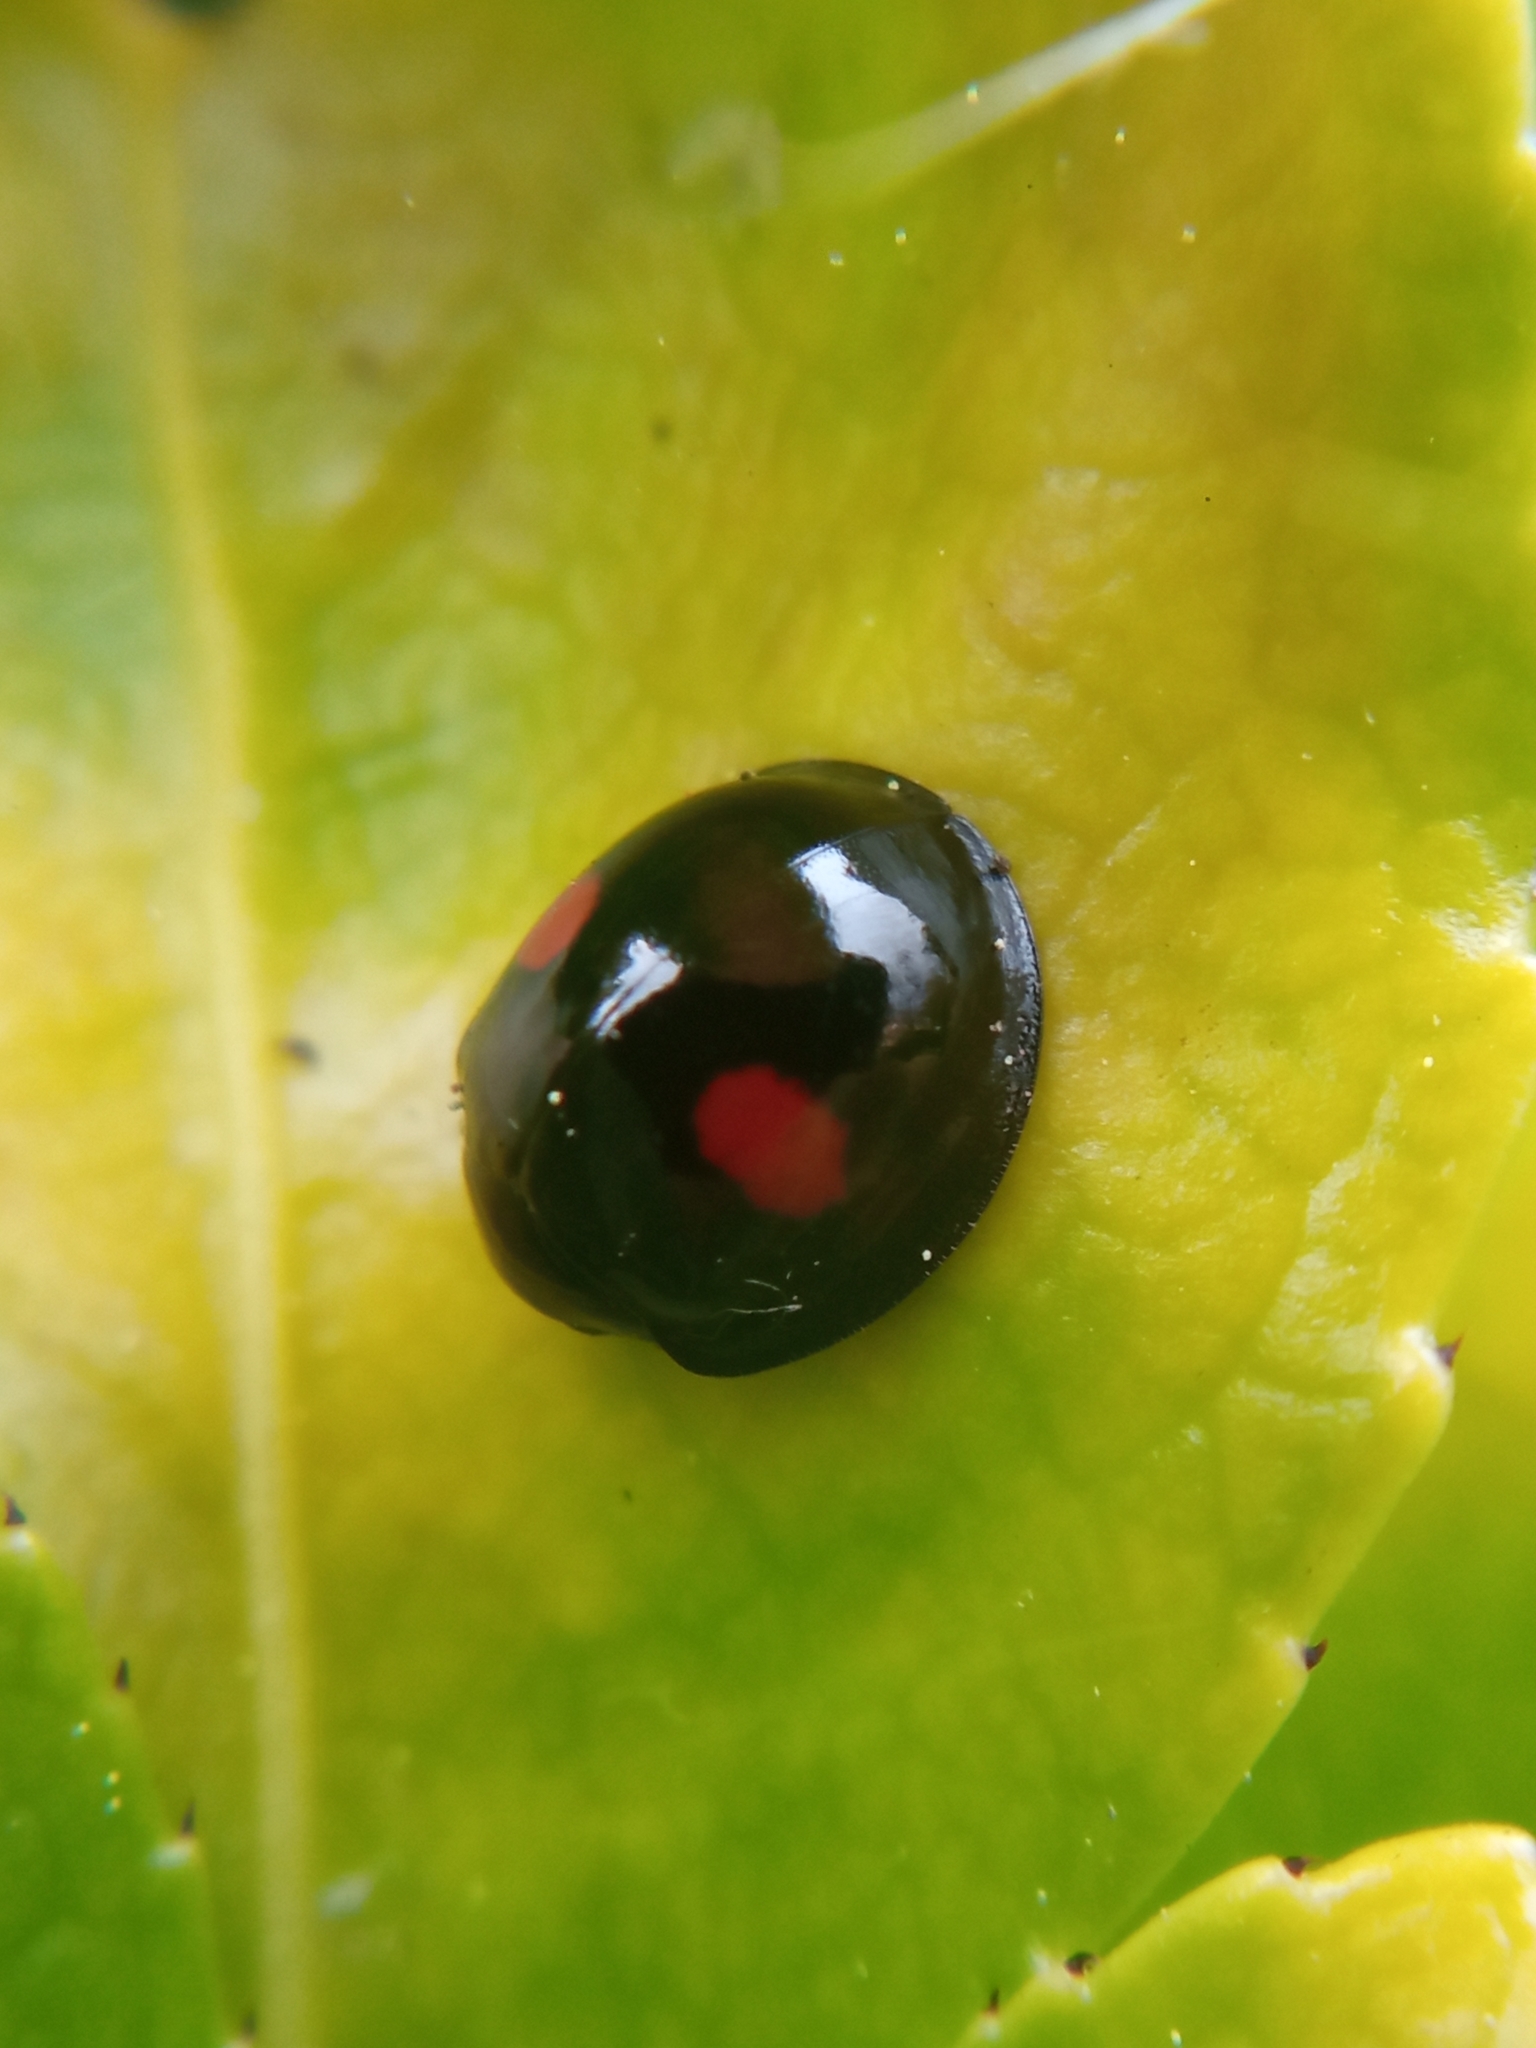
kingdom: Animalia
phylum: Arthropoda
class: Insecta
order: Coleoptera
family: Coccinellidae
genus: Chilocorus
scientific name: Chilocorus renipustulatus
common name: Kidney-spot ladybird
